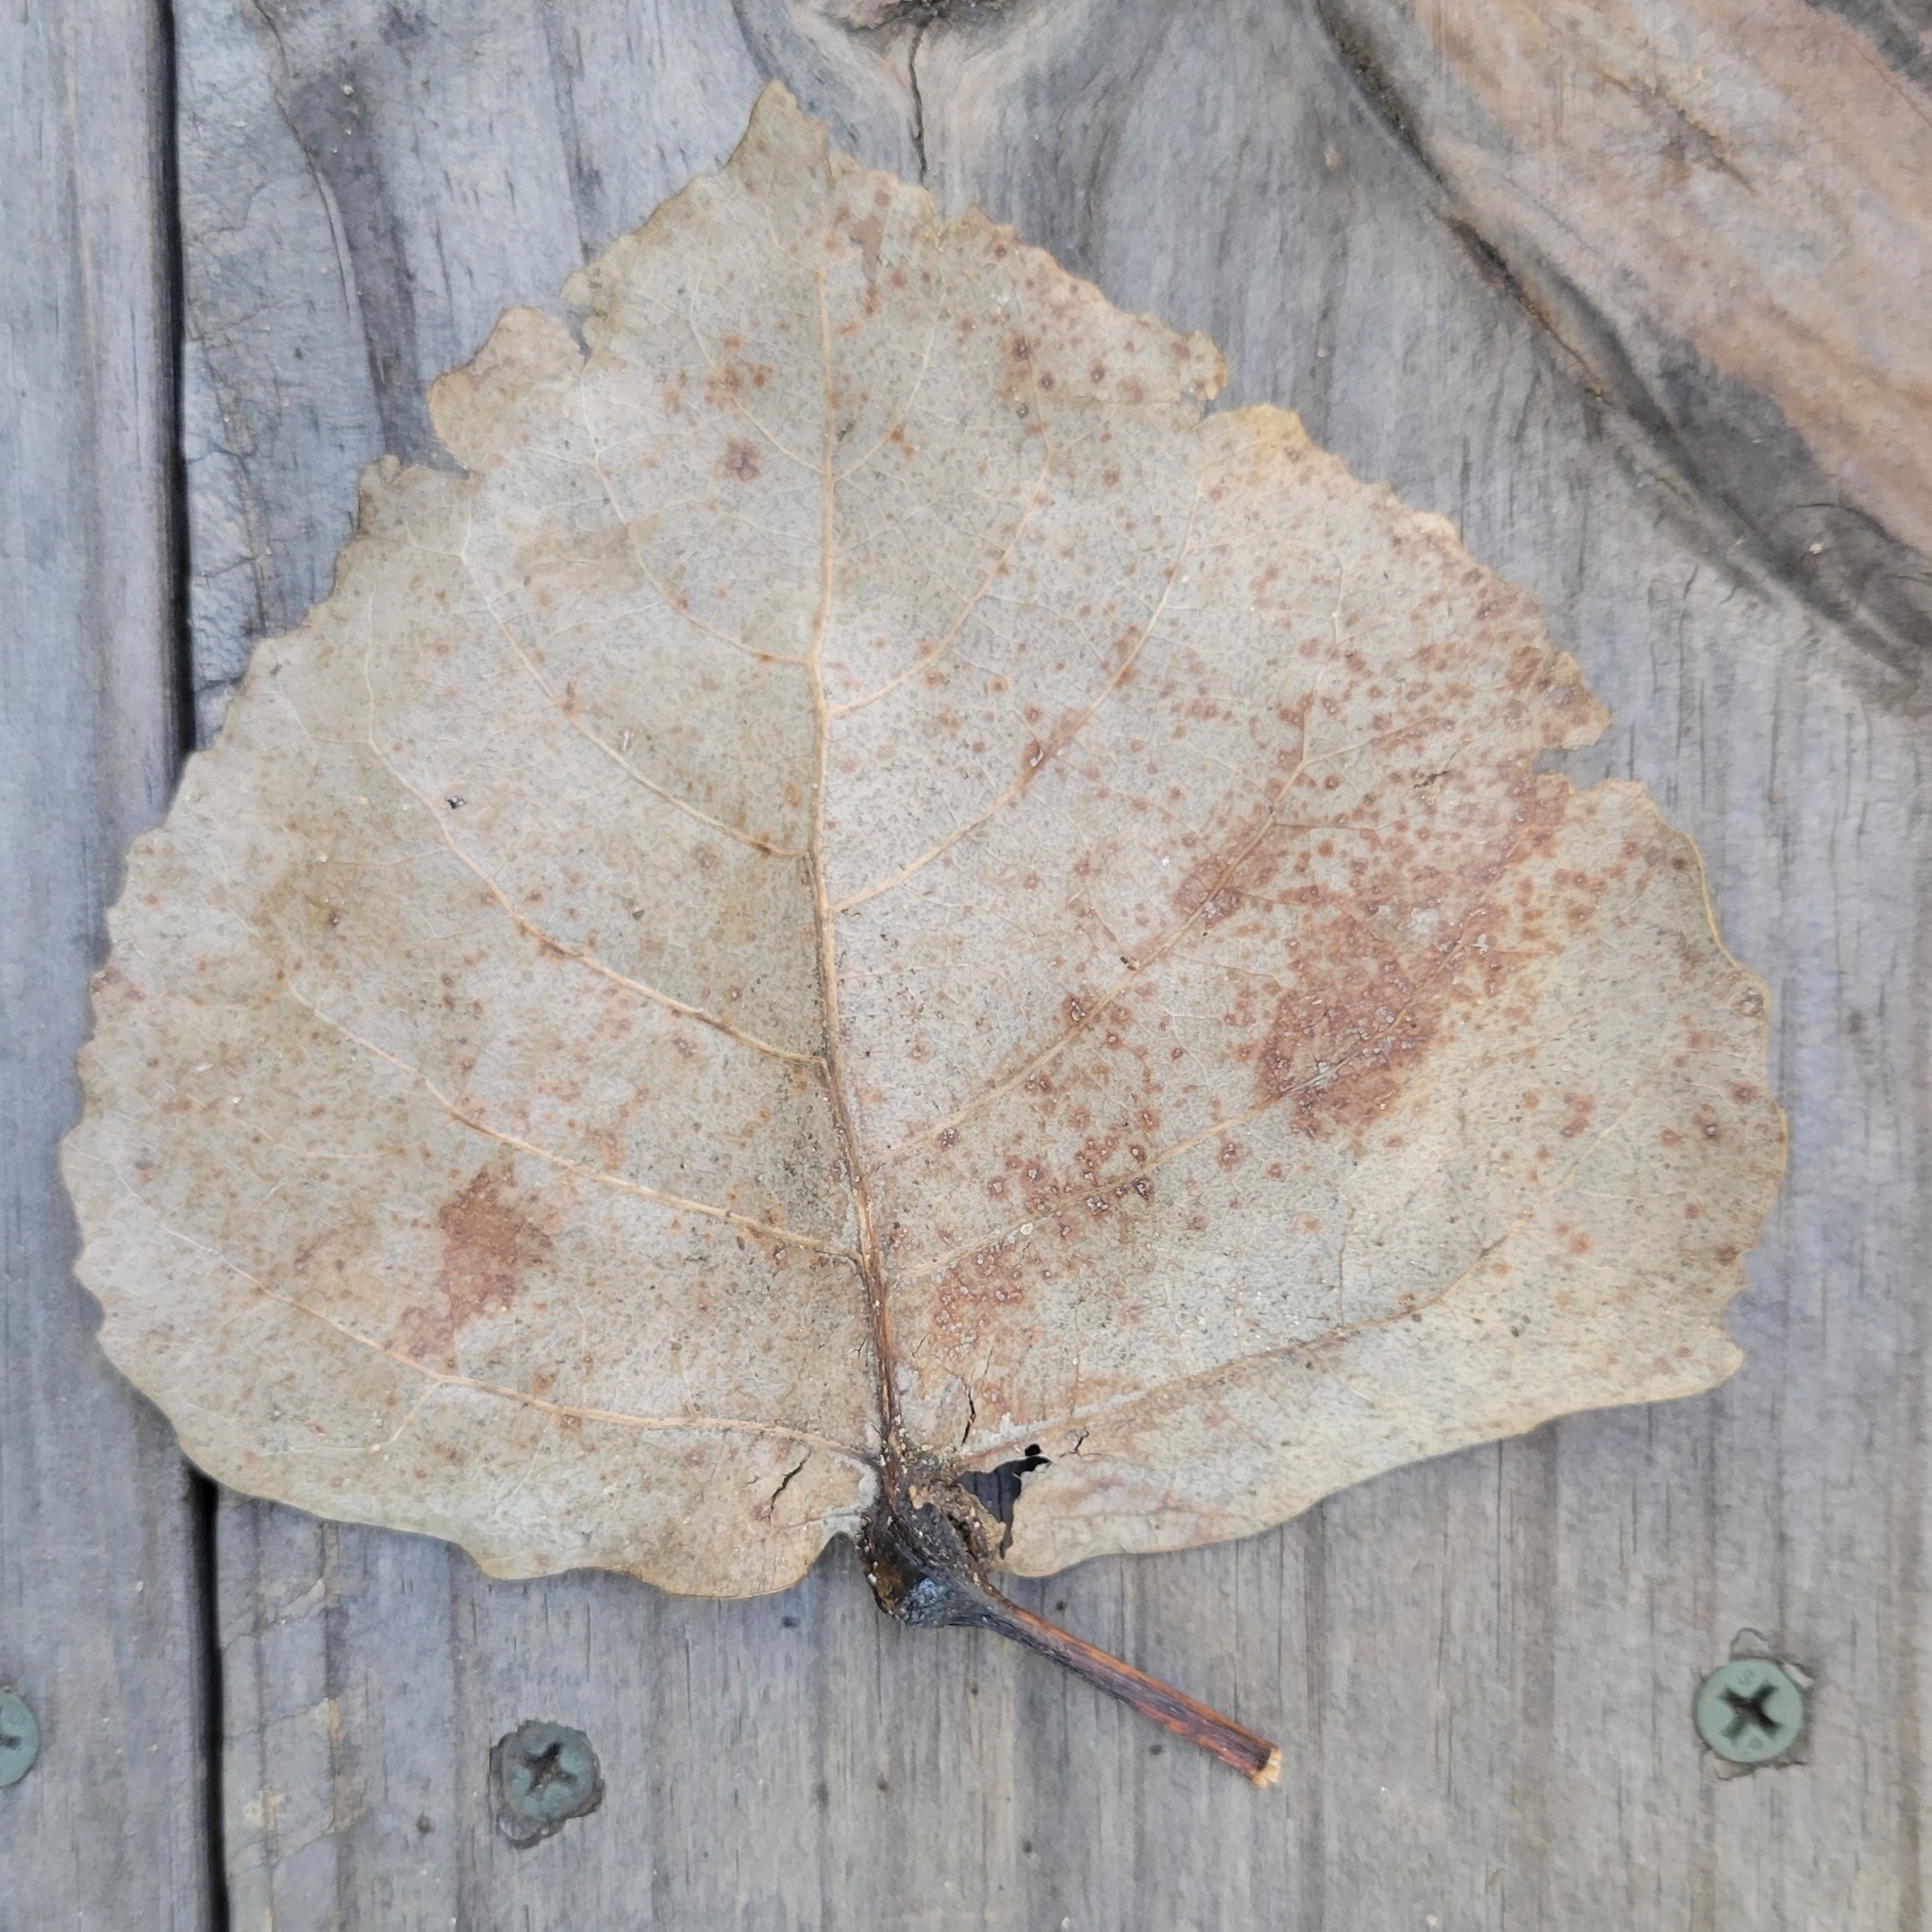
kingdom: Plantae
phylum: Tracheophyta
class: Magnoliopsida
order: Malpighiales
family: Salicaceae
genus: Populus
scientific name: Populus deltoides
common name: Eastern cottonwood
